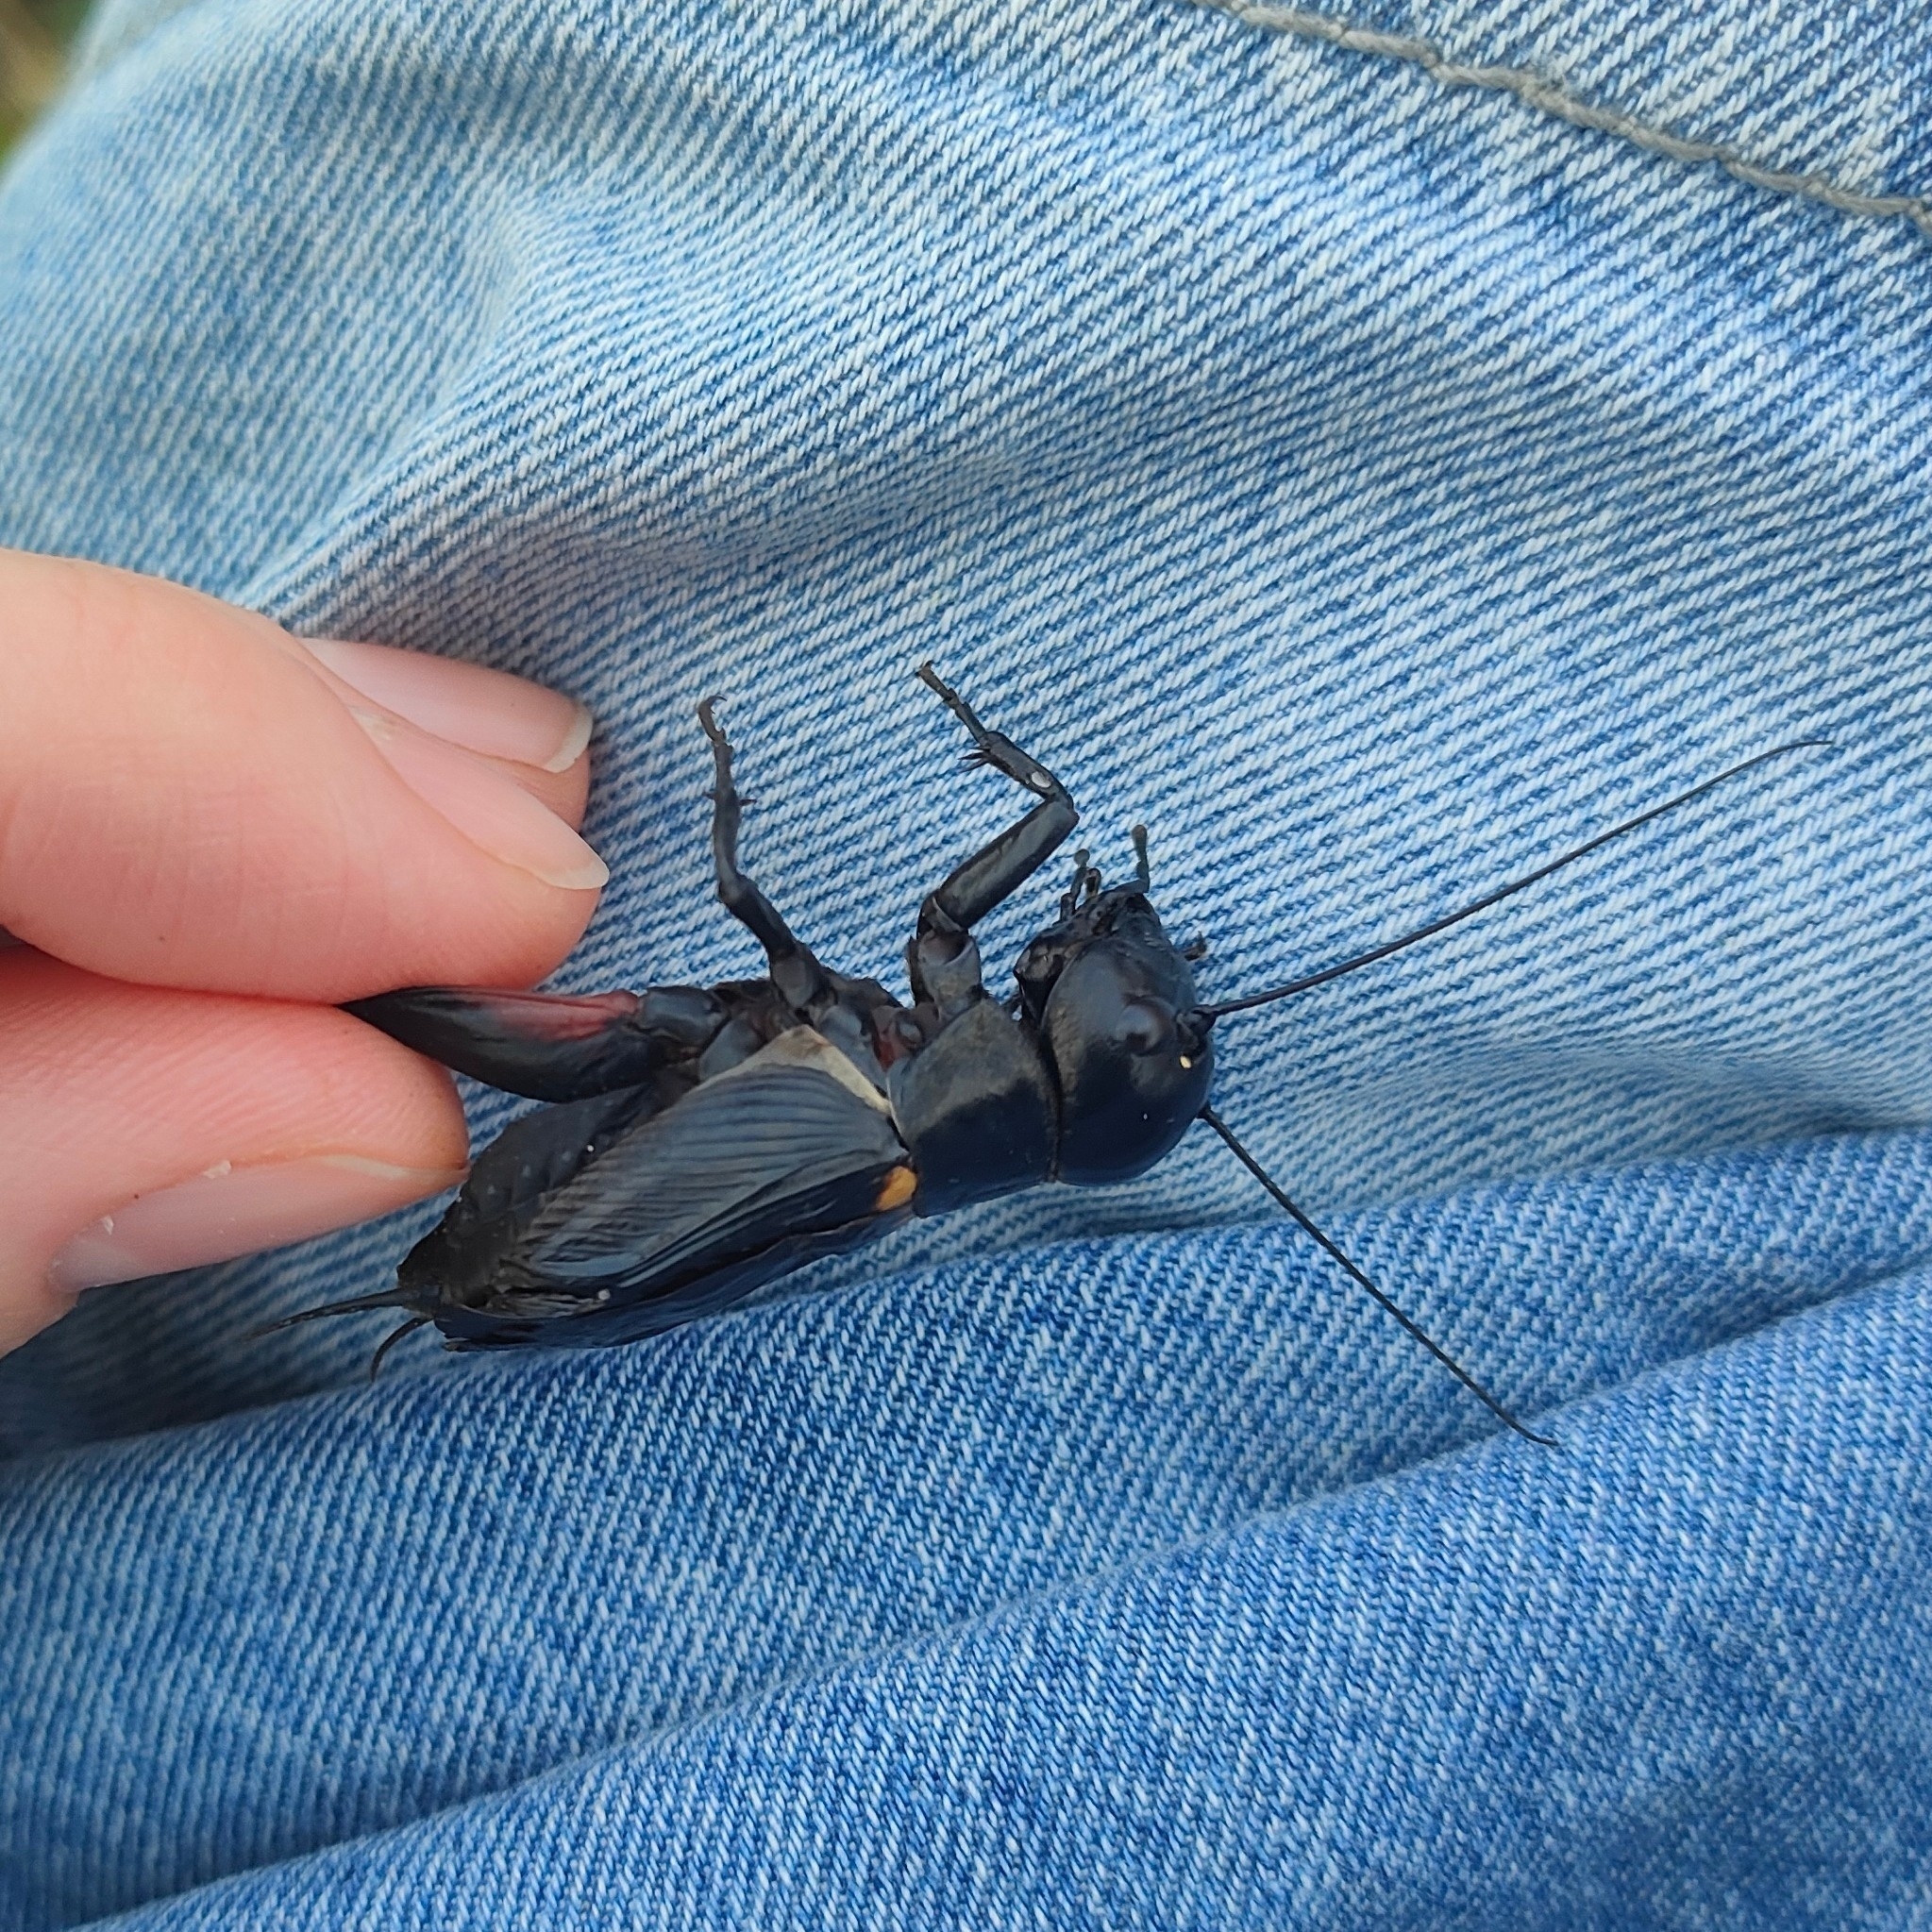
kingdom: Animalia
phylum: Arthropoda
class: Insecta
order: Orthoptera
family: Gryllidae
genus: Gryllus
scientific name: Gryllus campestris
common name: Field cricket
